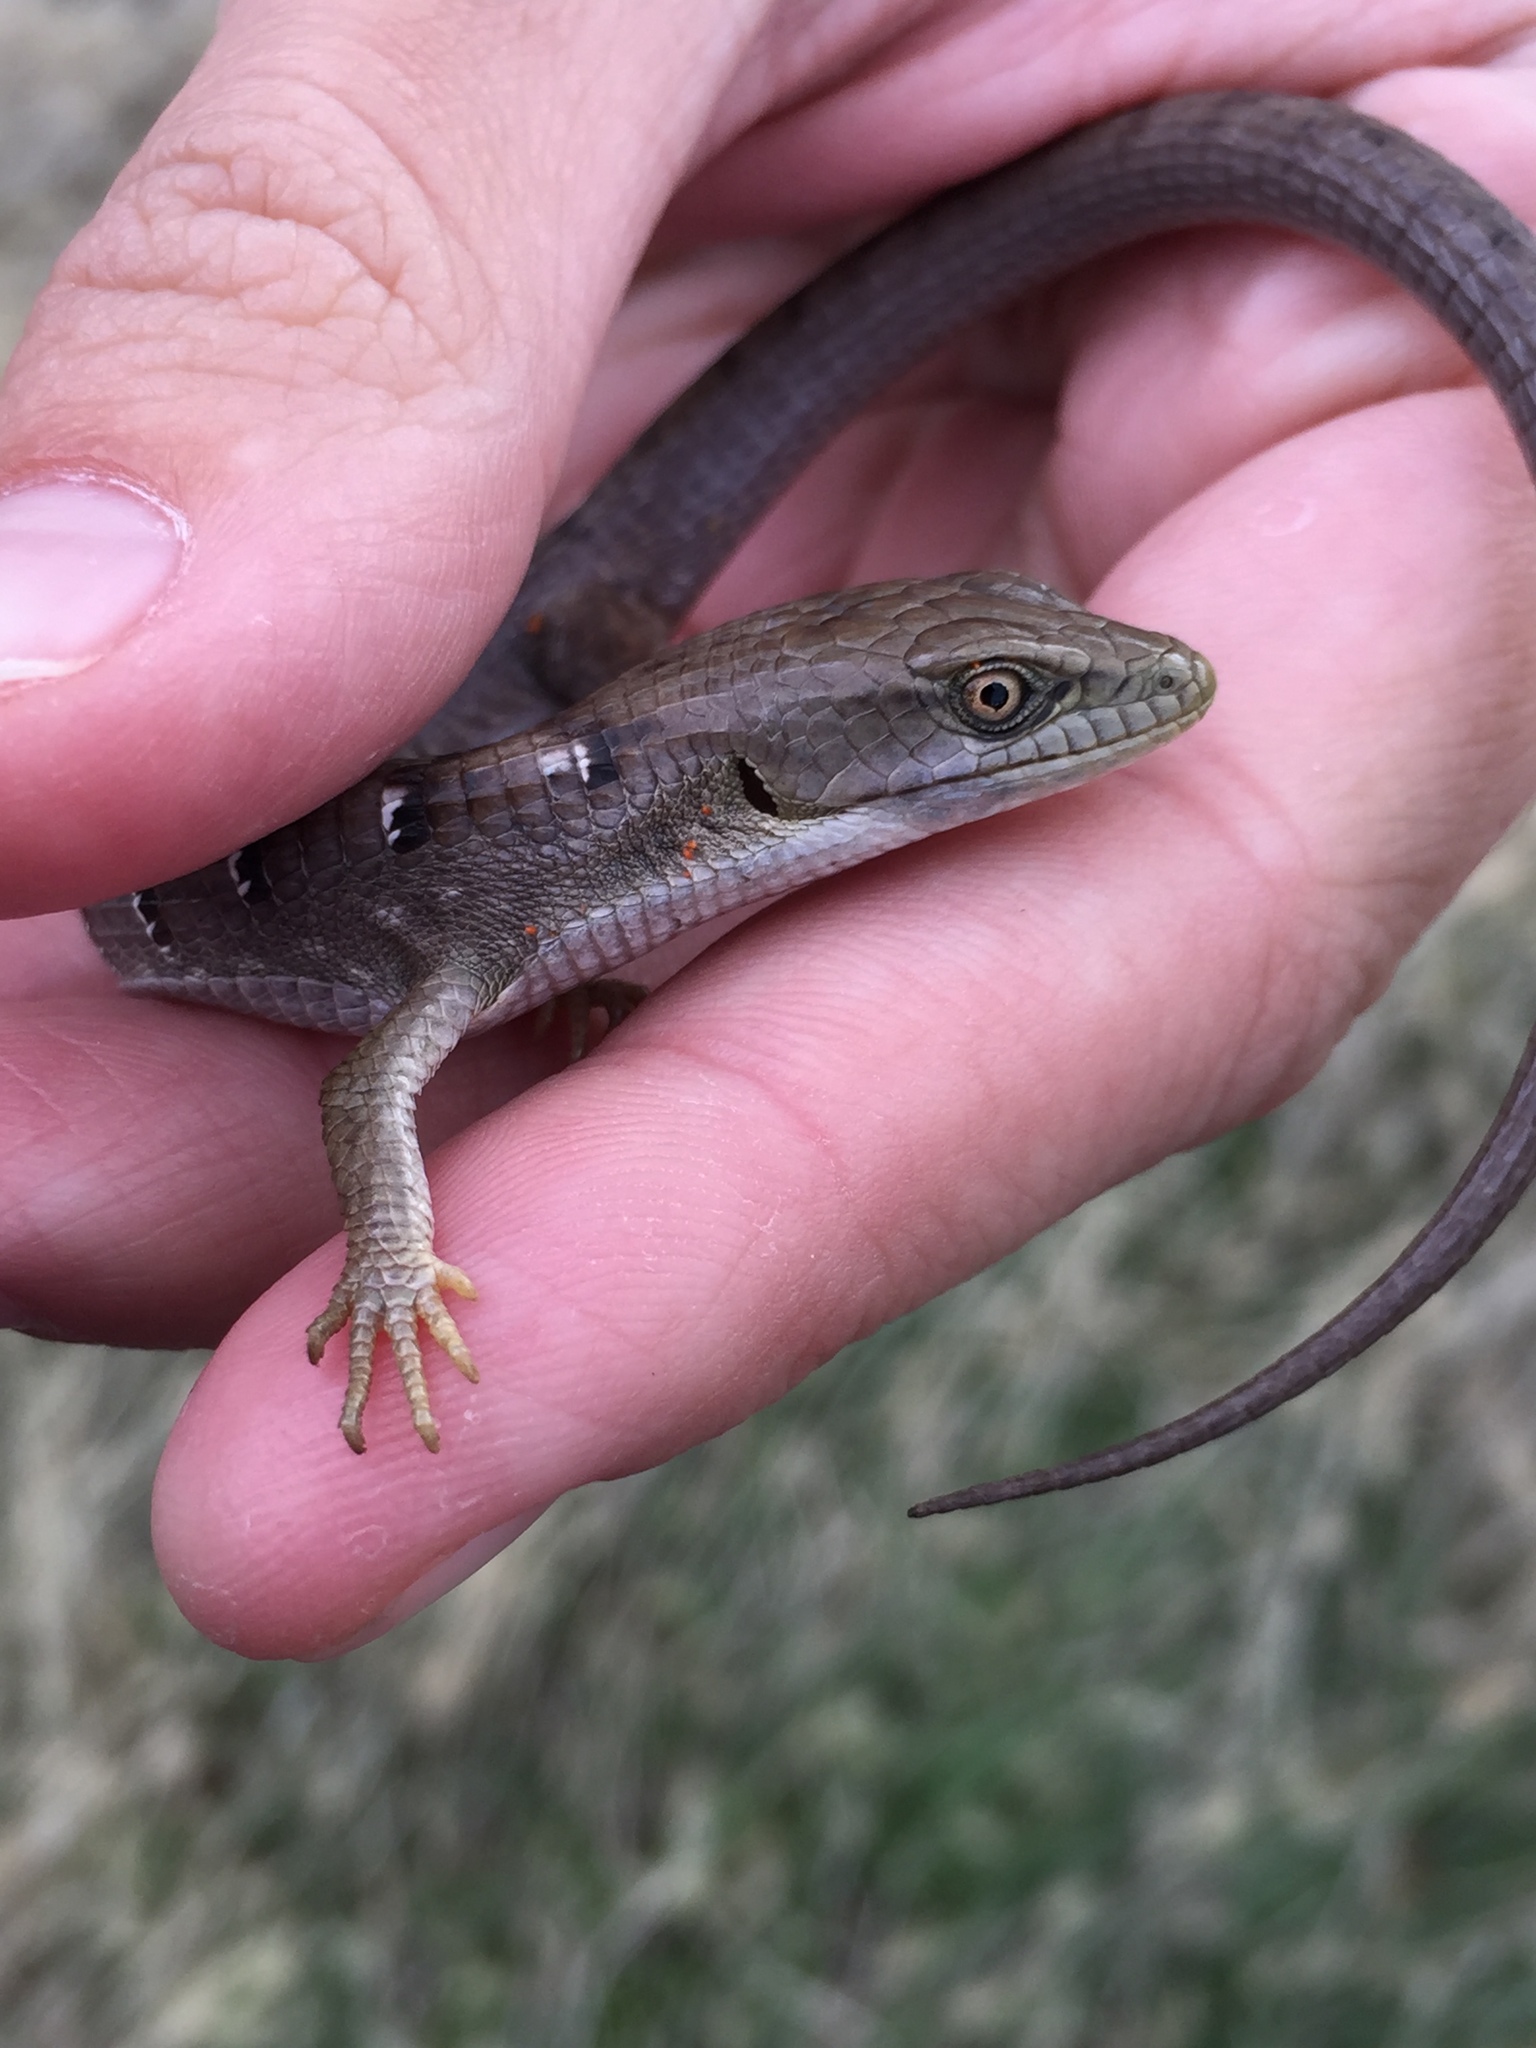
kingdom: Animalia
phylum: Chordata
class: Squamata
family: Anguidae
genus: Elgaria
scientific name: Elgaria multicarinata
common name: Southern alligator lizard
